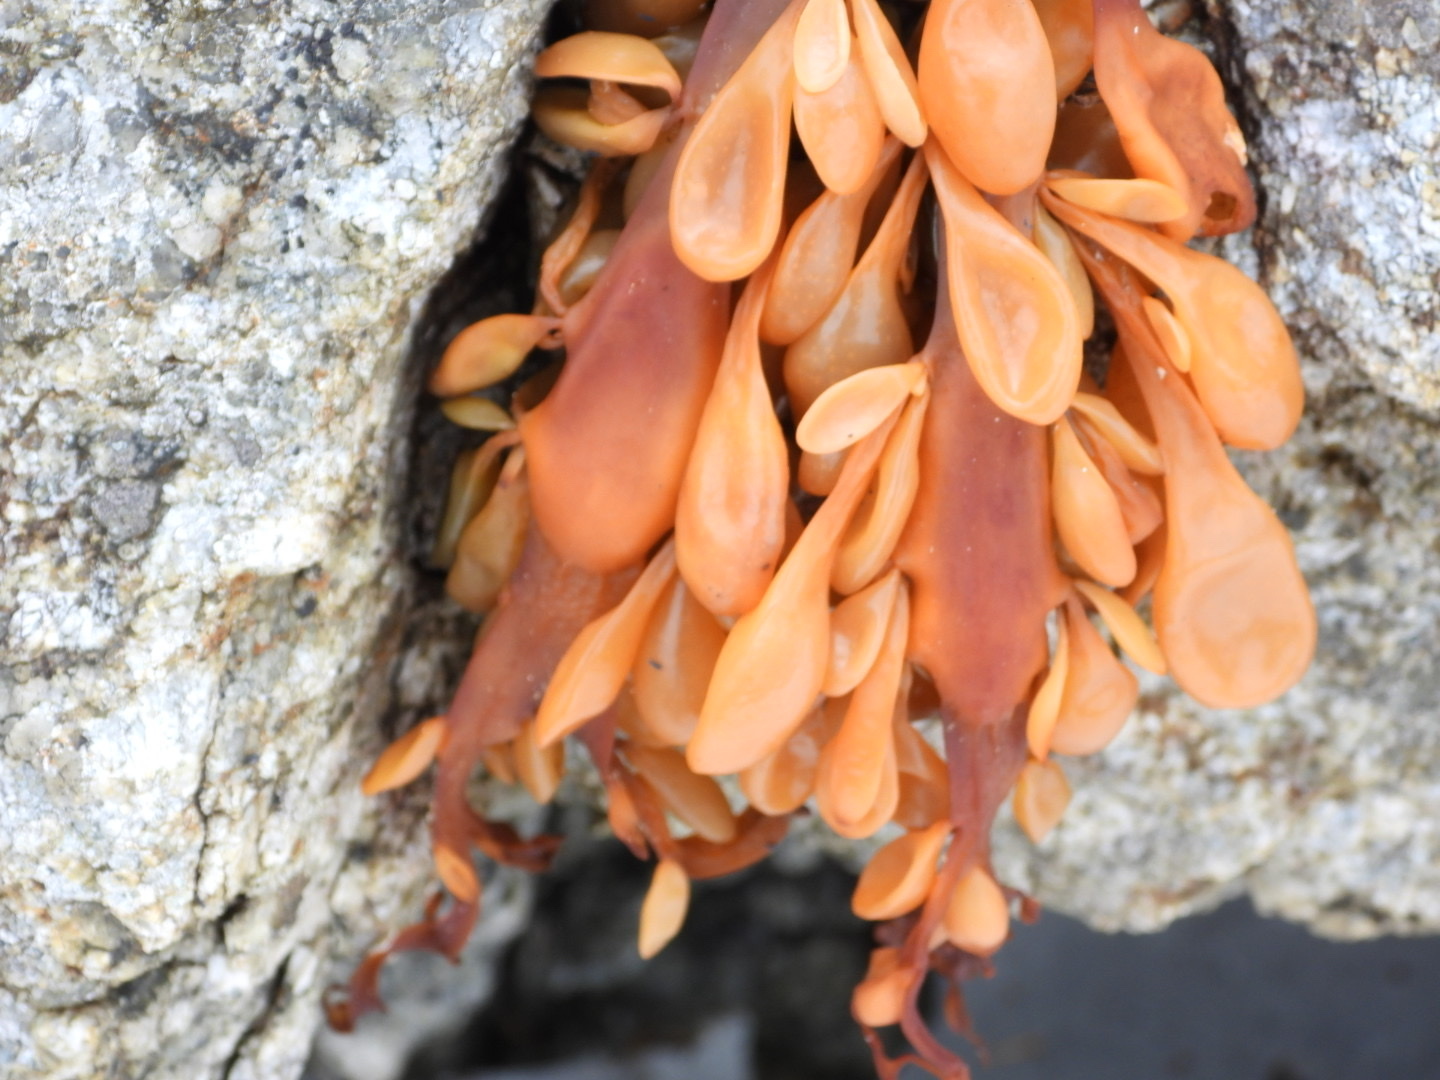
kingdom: Chromista
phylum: Ochrophyta
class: Phaeophyceae
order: Fucales
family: Fucaceae
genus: Ascophyllum
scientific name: Ascophyllum nodosum
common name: Knotted wrack
